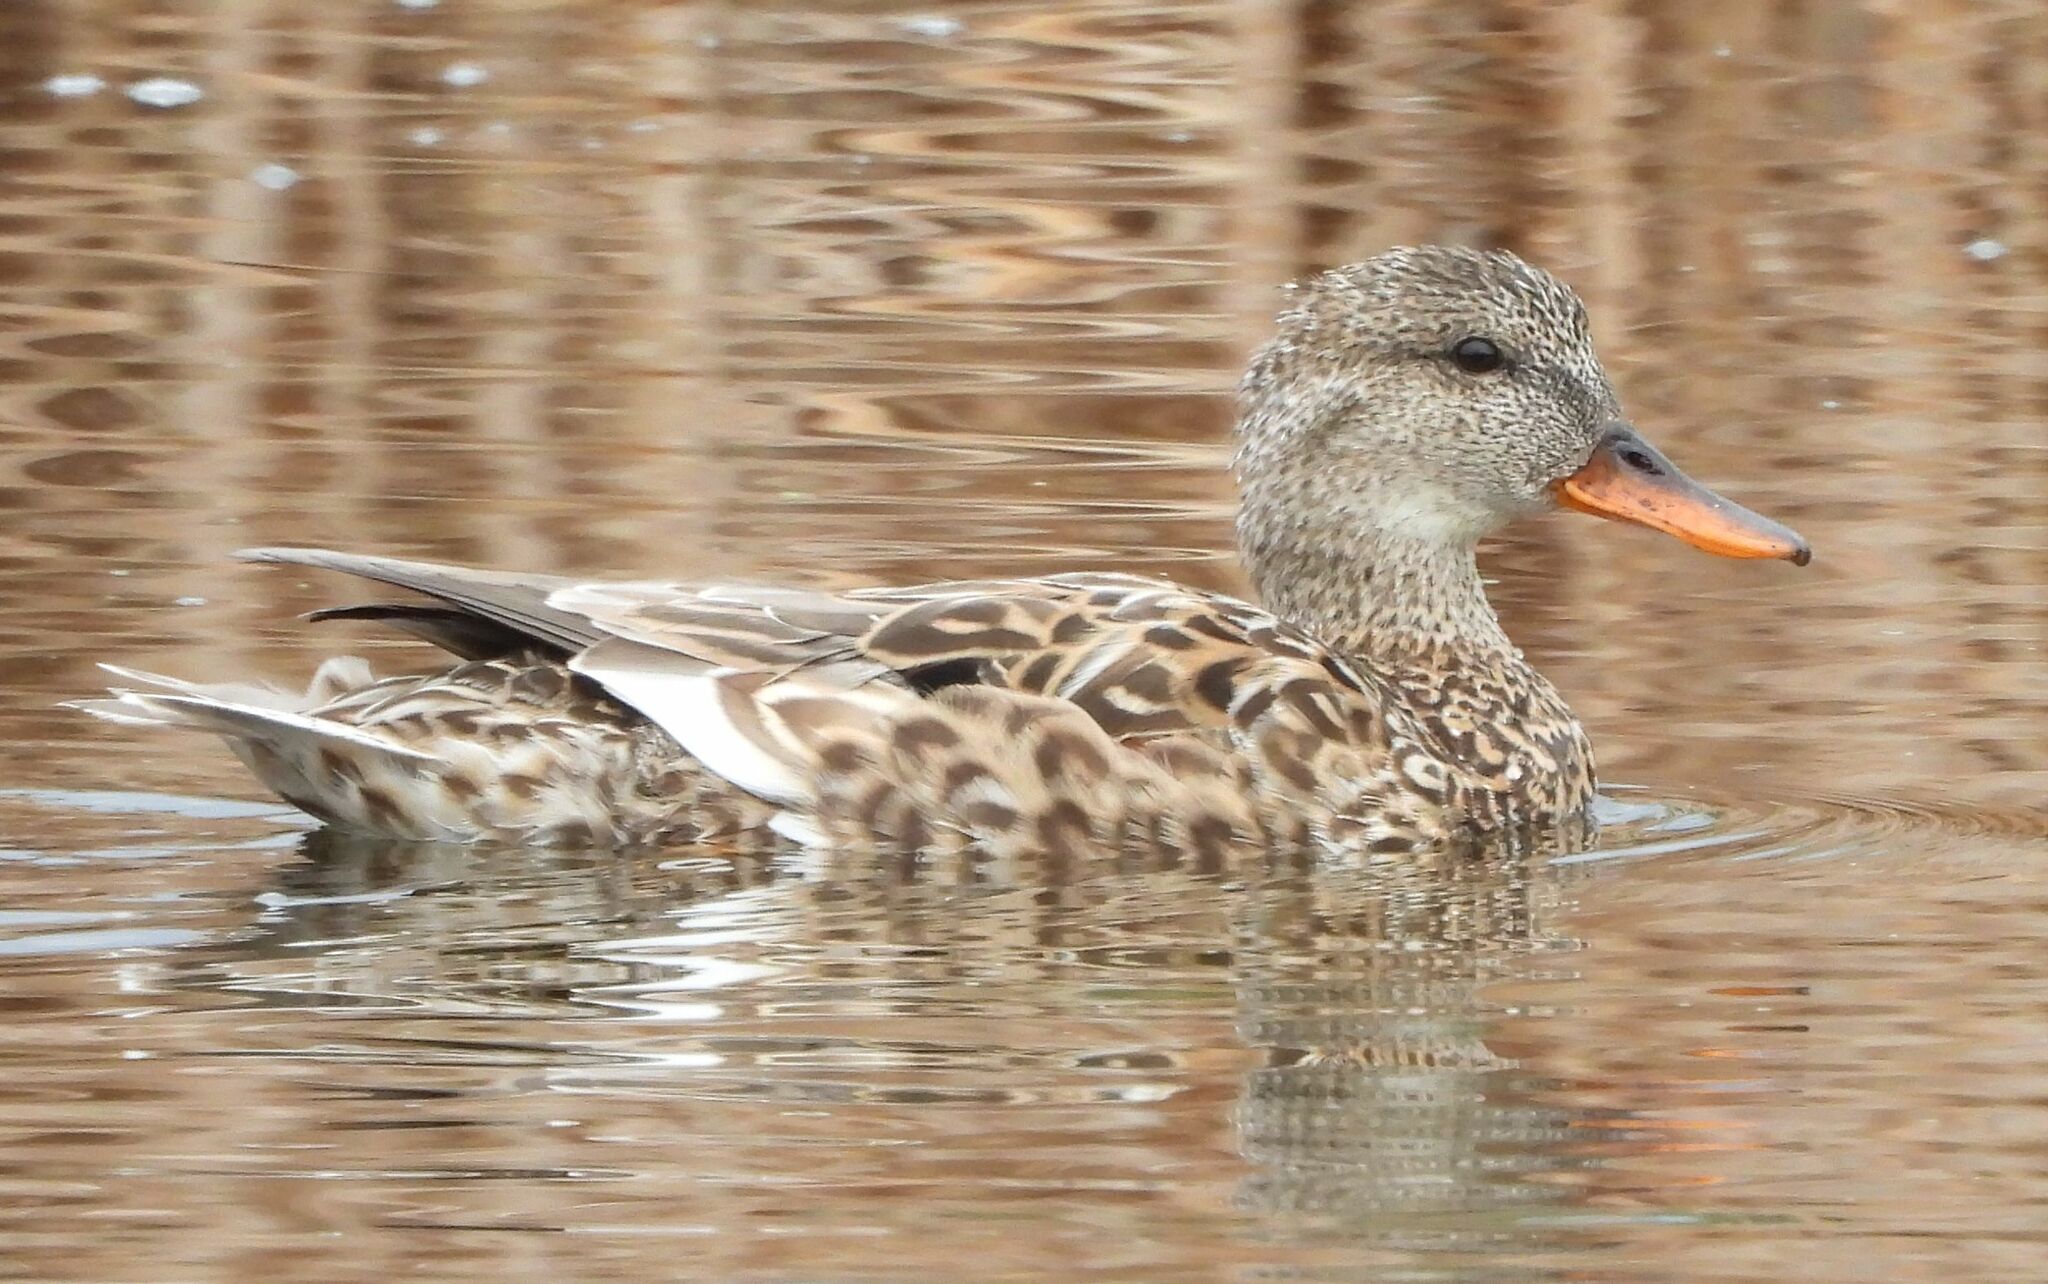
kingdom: Animalia
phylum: Chordata
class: Aves
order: Anseriformes
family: Anatidae
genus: Mareca
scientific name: Mareca strepera
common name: Gadwall
